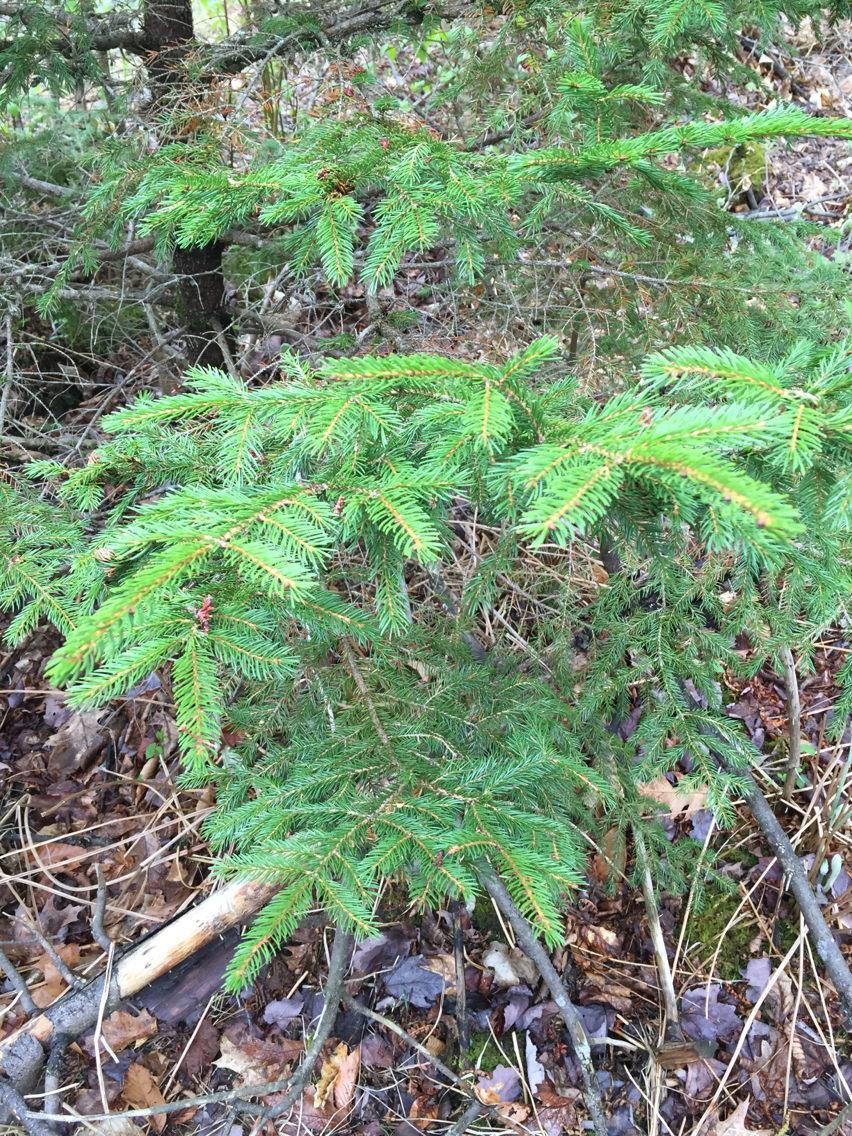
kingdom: Plantae
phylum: Tracheophyta
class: Pinopsida
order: Pinales
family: Pinaceae
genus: Picea
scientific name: Picea rubens
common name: Red spruce
